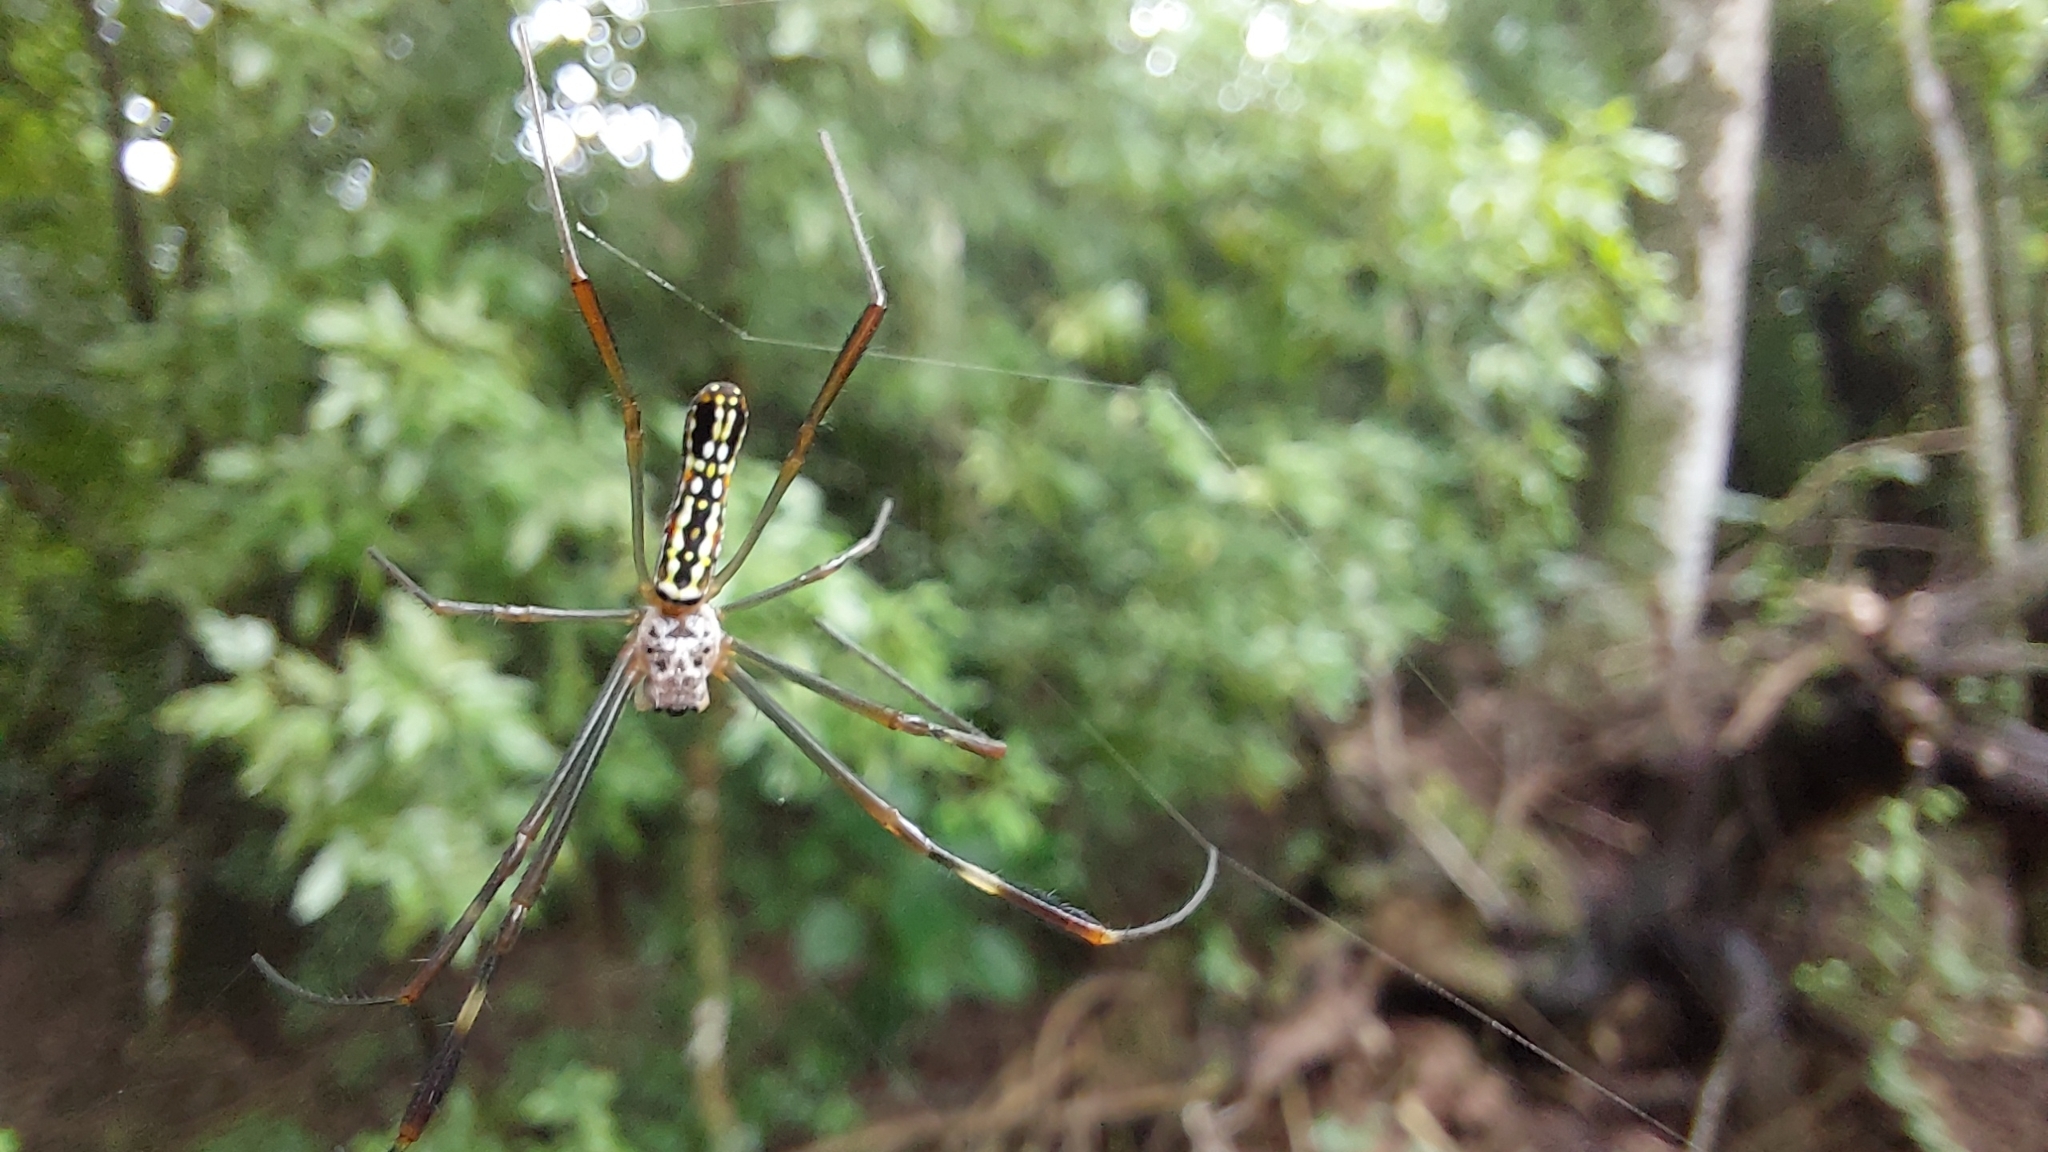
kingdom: Animalia
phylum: Arthropoda
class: Arachnida
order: Araneae
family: Araneidae
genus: Trichonephila
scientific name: Trichonephila clavipes
